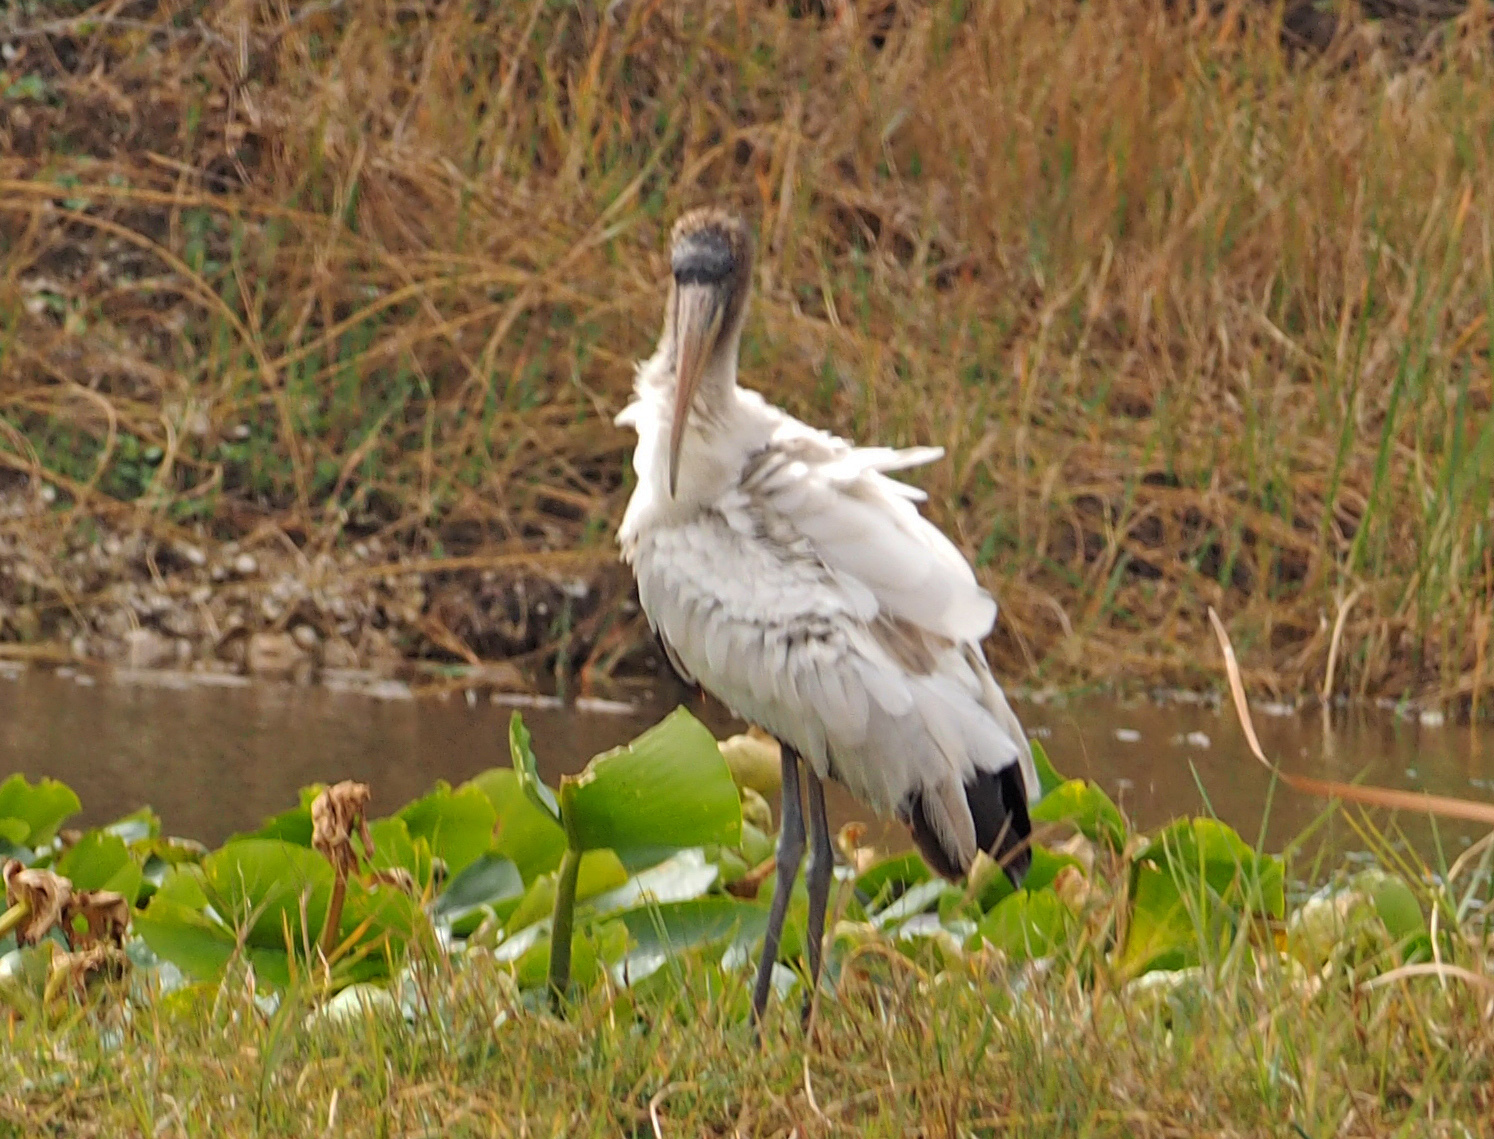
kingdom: Animalia
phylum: Chordata
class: Aves
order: Ciconiiformes
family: Ciconiidae
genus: Mycteria
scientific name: Mycteria americana
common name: Wood stork
